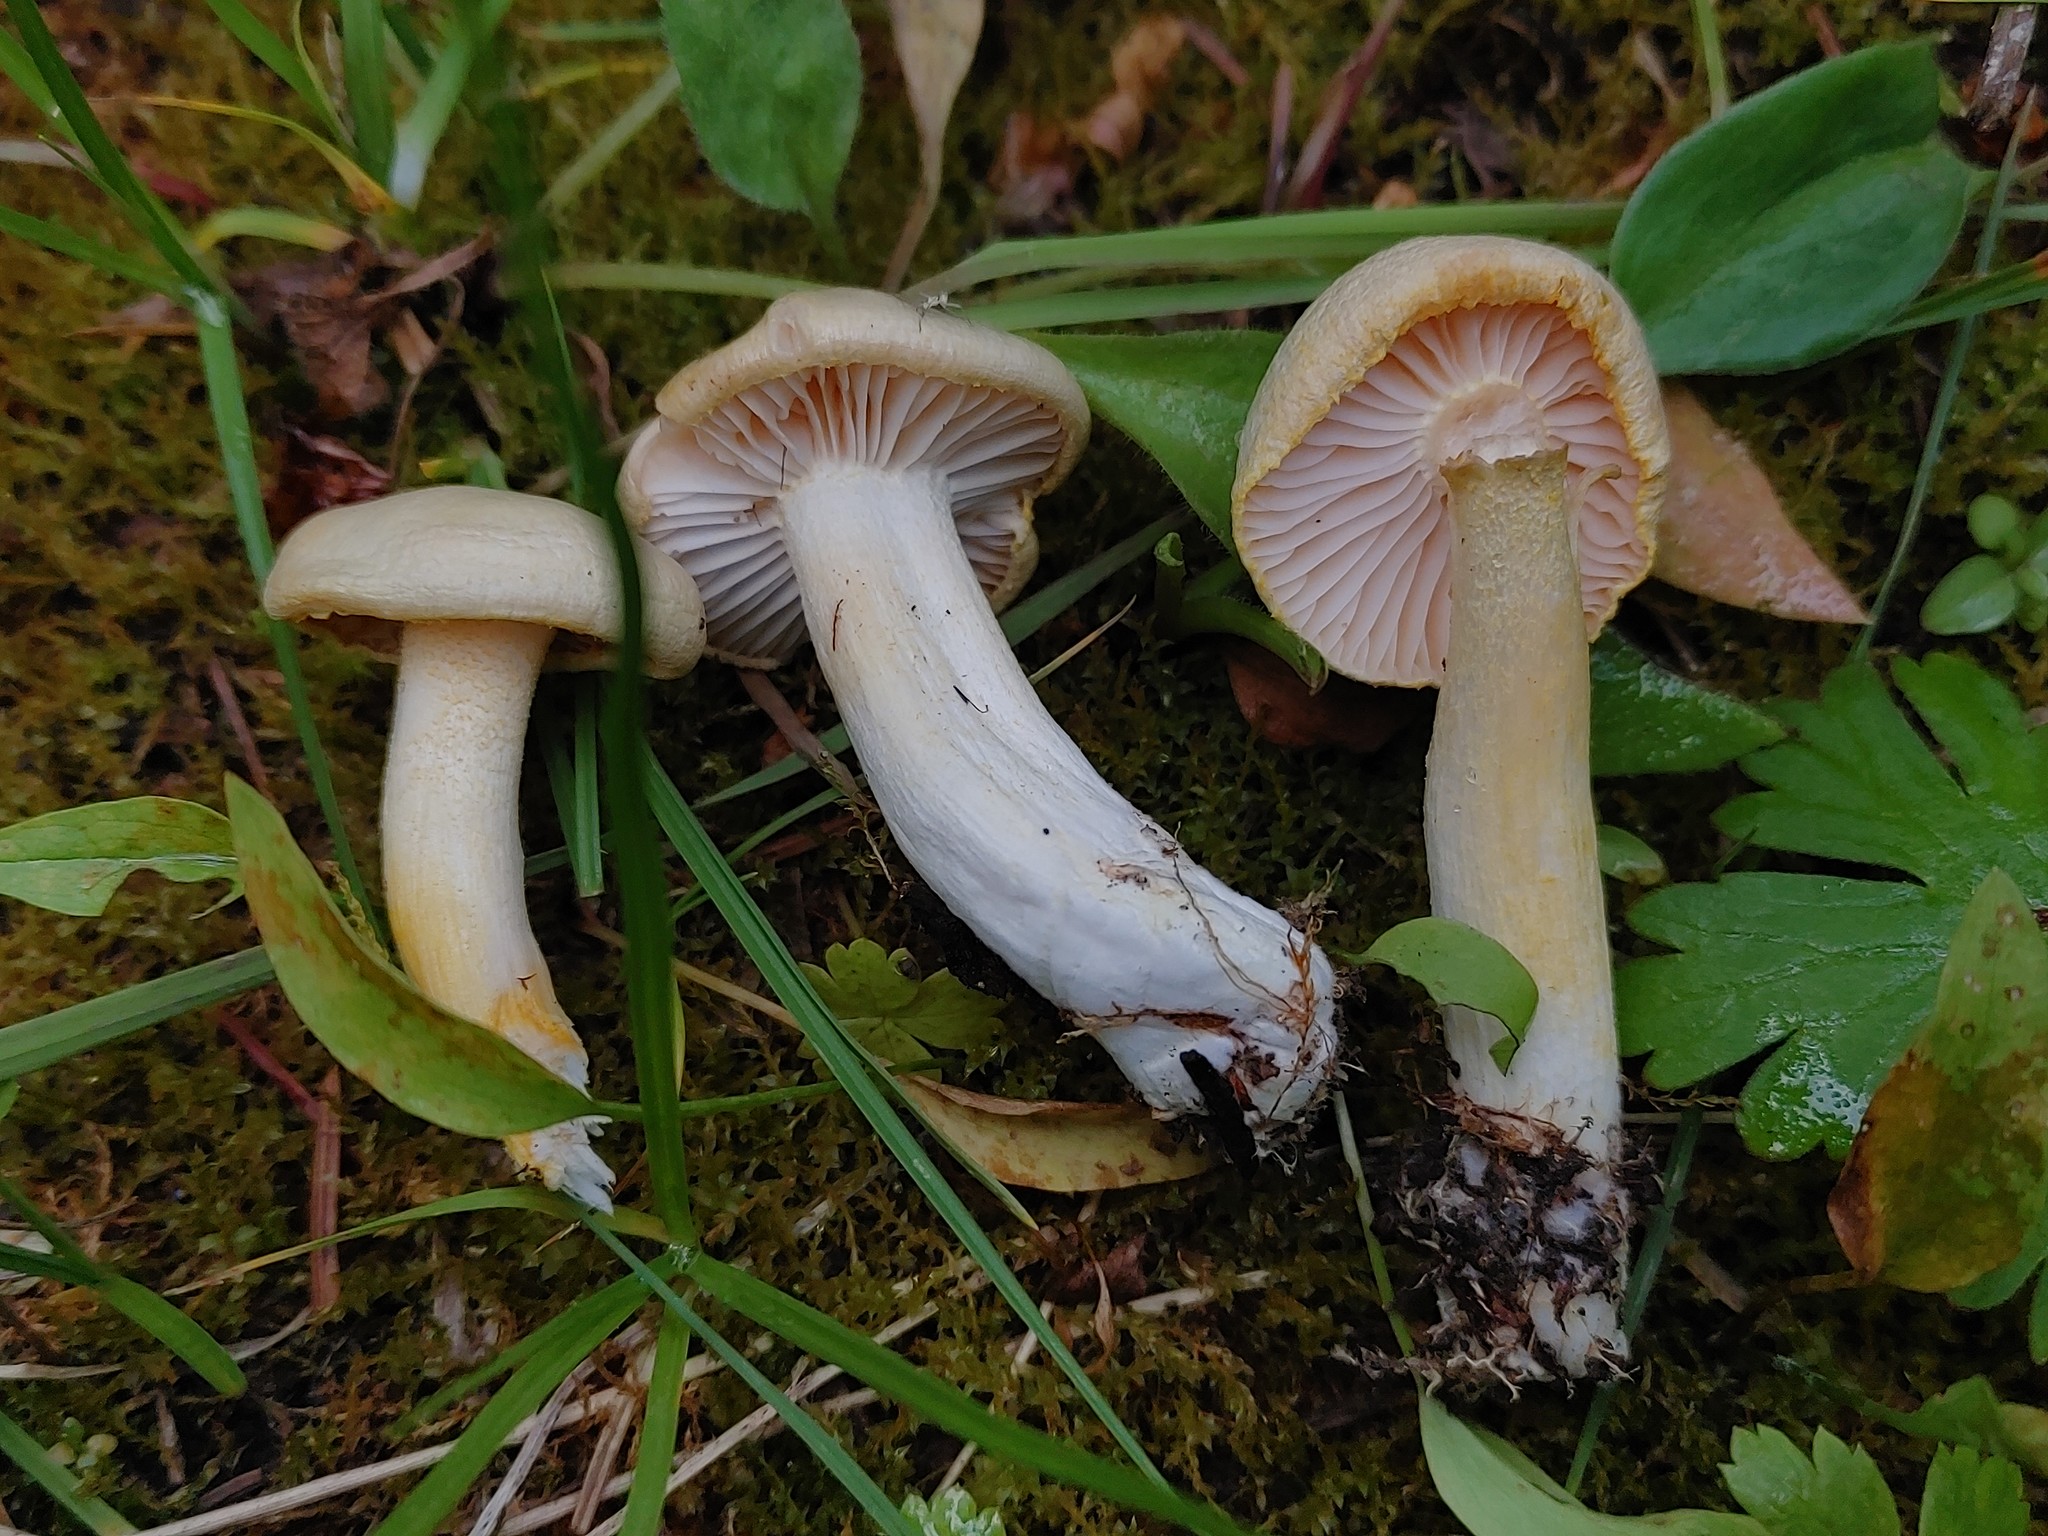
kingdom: Fungi
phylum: Basidiomycota
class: Agaricomycetes
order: Agaricales
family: Hygrophoraceae
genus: Hygrophorus
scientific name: Hygrophorus chrysodon
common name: Gold flecked woodwax
